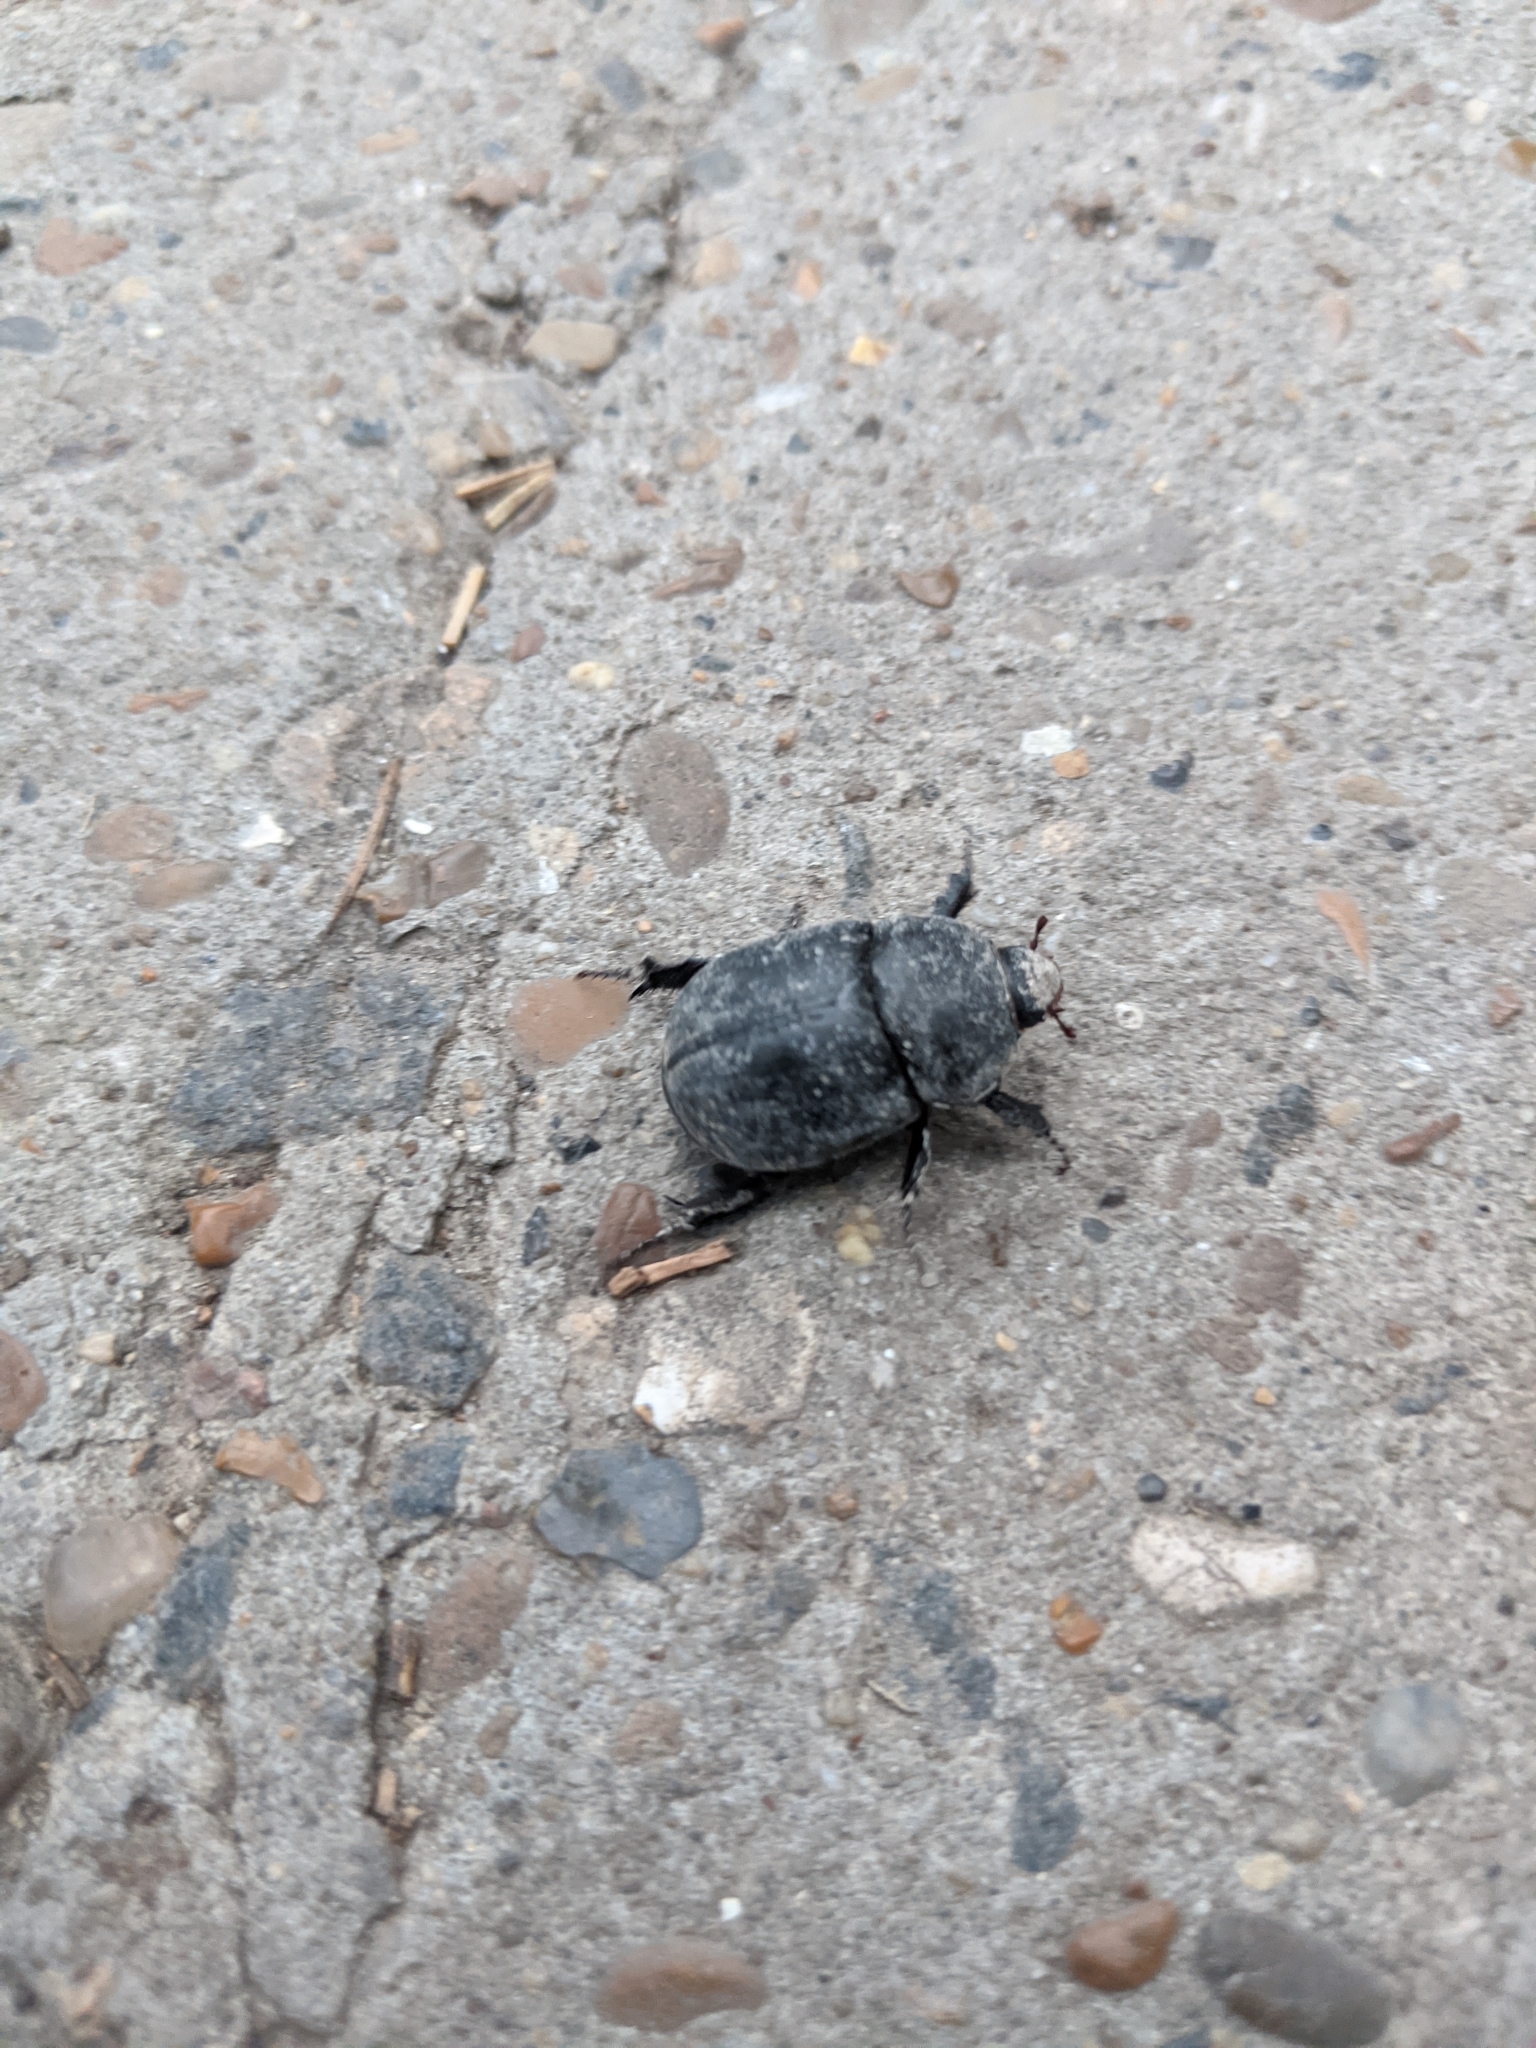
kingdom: Animalia
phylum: Arthropoda
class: Insecta
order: Coleoptera
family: Scarabaeidae
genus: Pentodon
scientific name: Pentodon idiota
